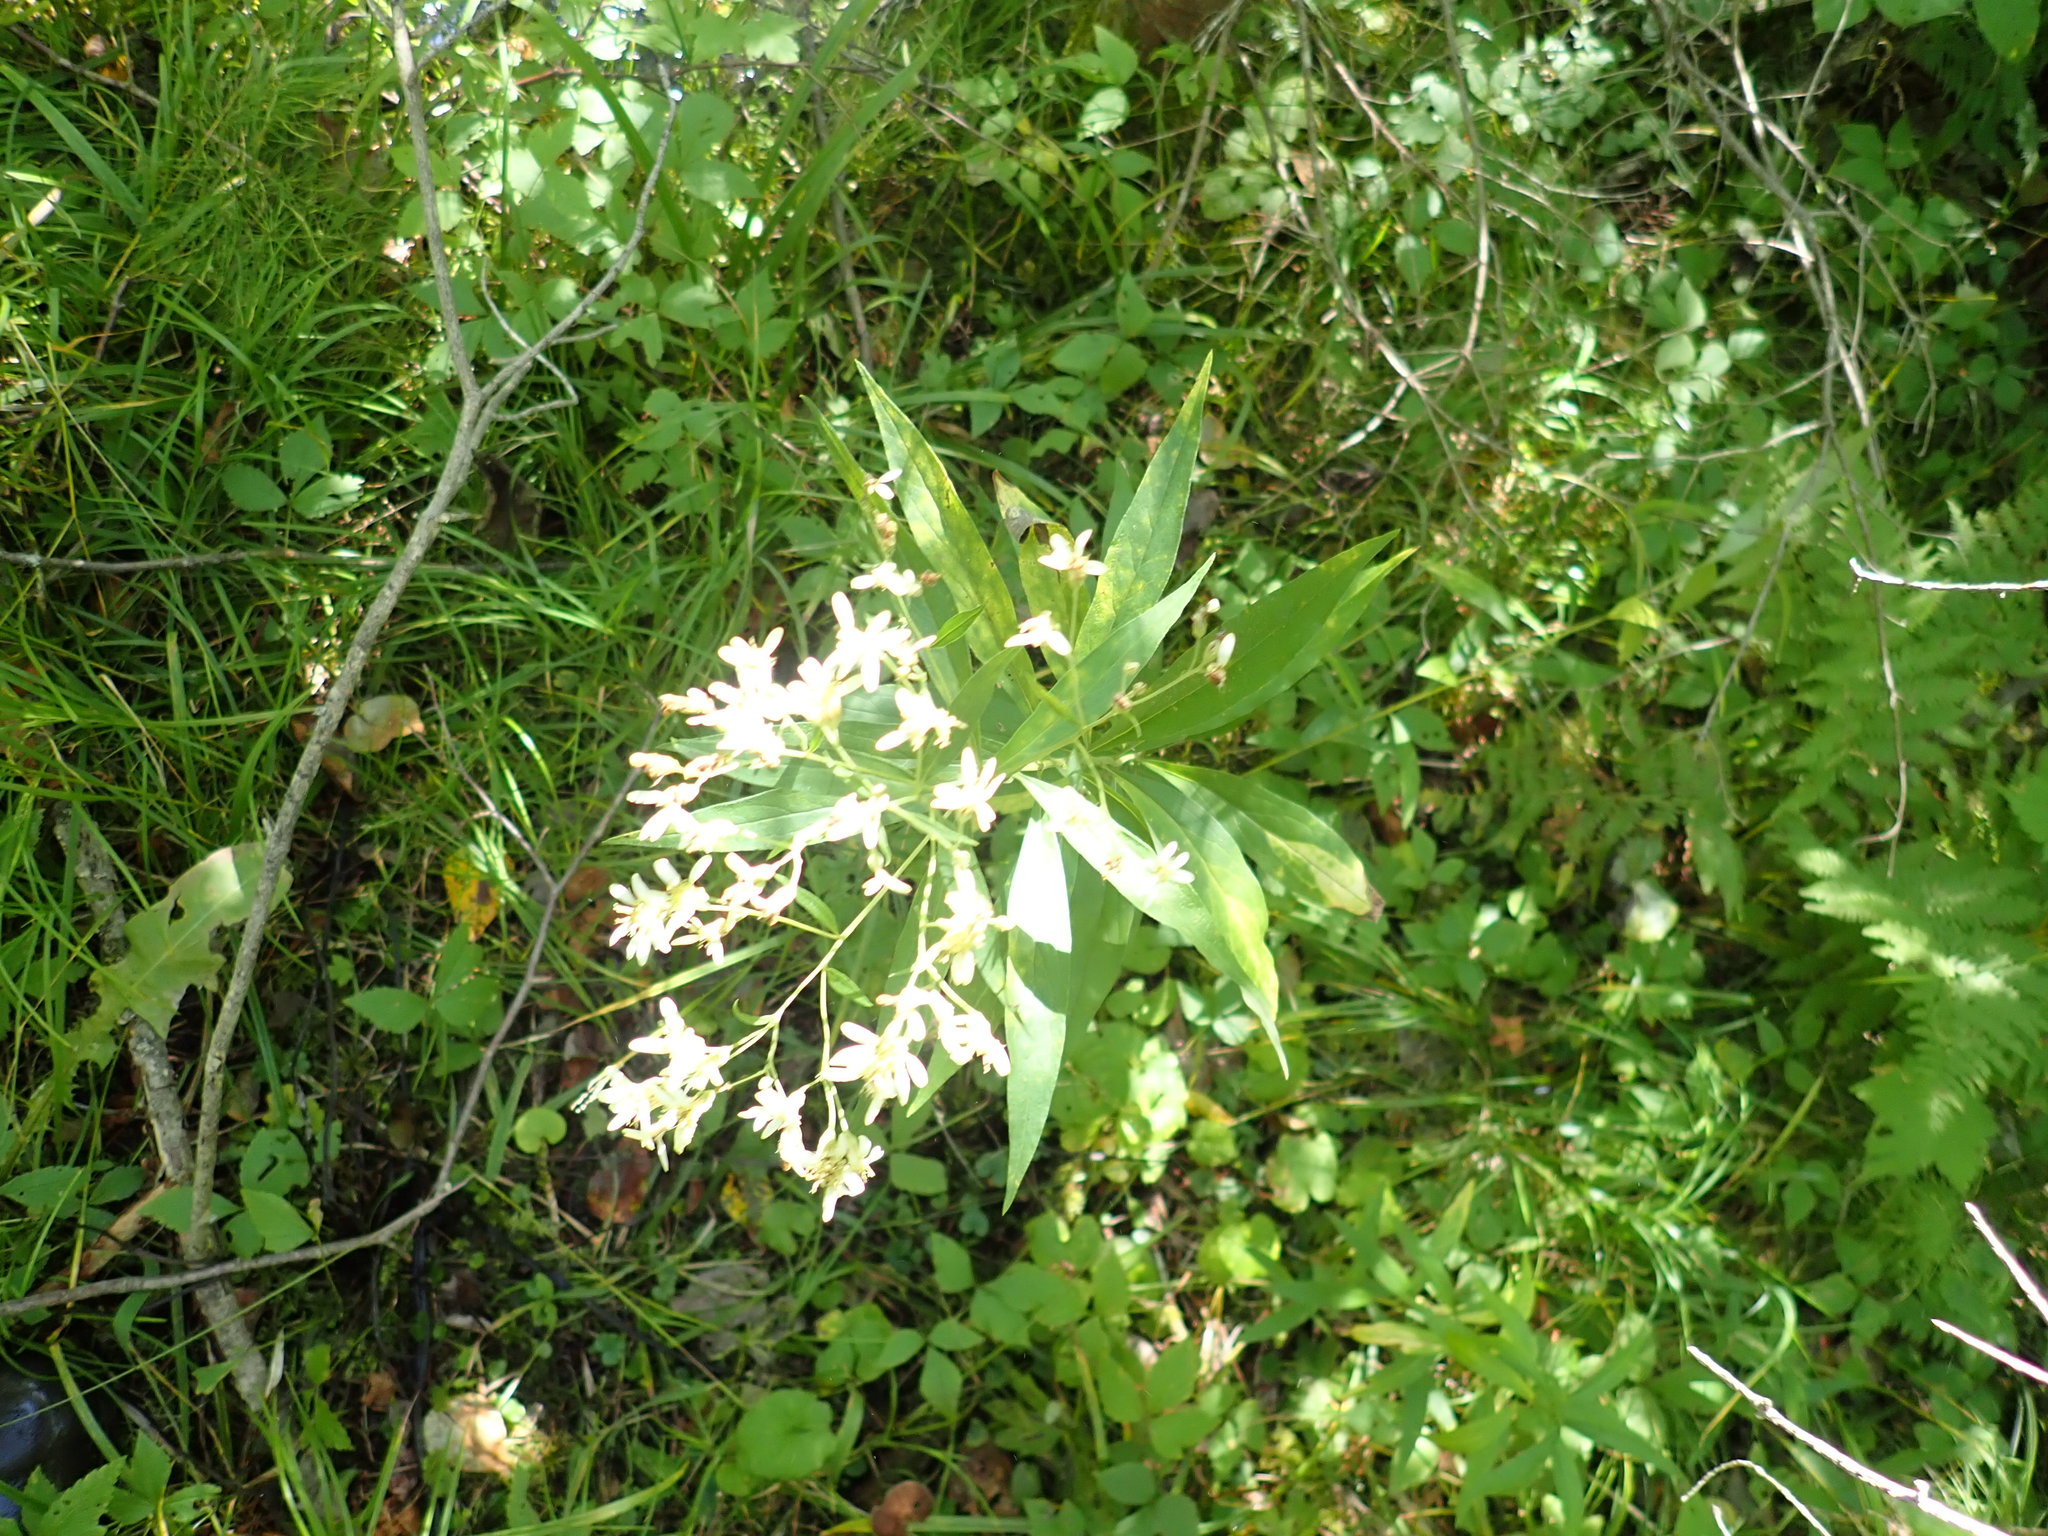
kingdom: Plantae
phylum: Tracheophyta
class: Magnoliopsida
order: Asterales
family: Asteraceae
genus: Doellingeria
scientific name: Doellingeria umbellata
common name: Flat-top white aster
